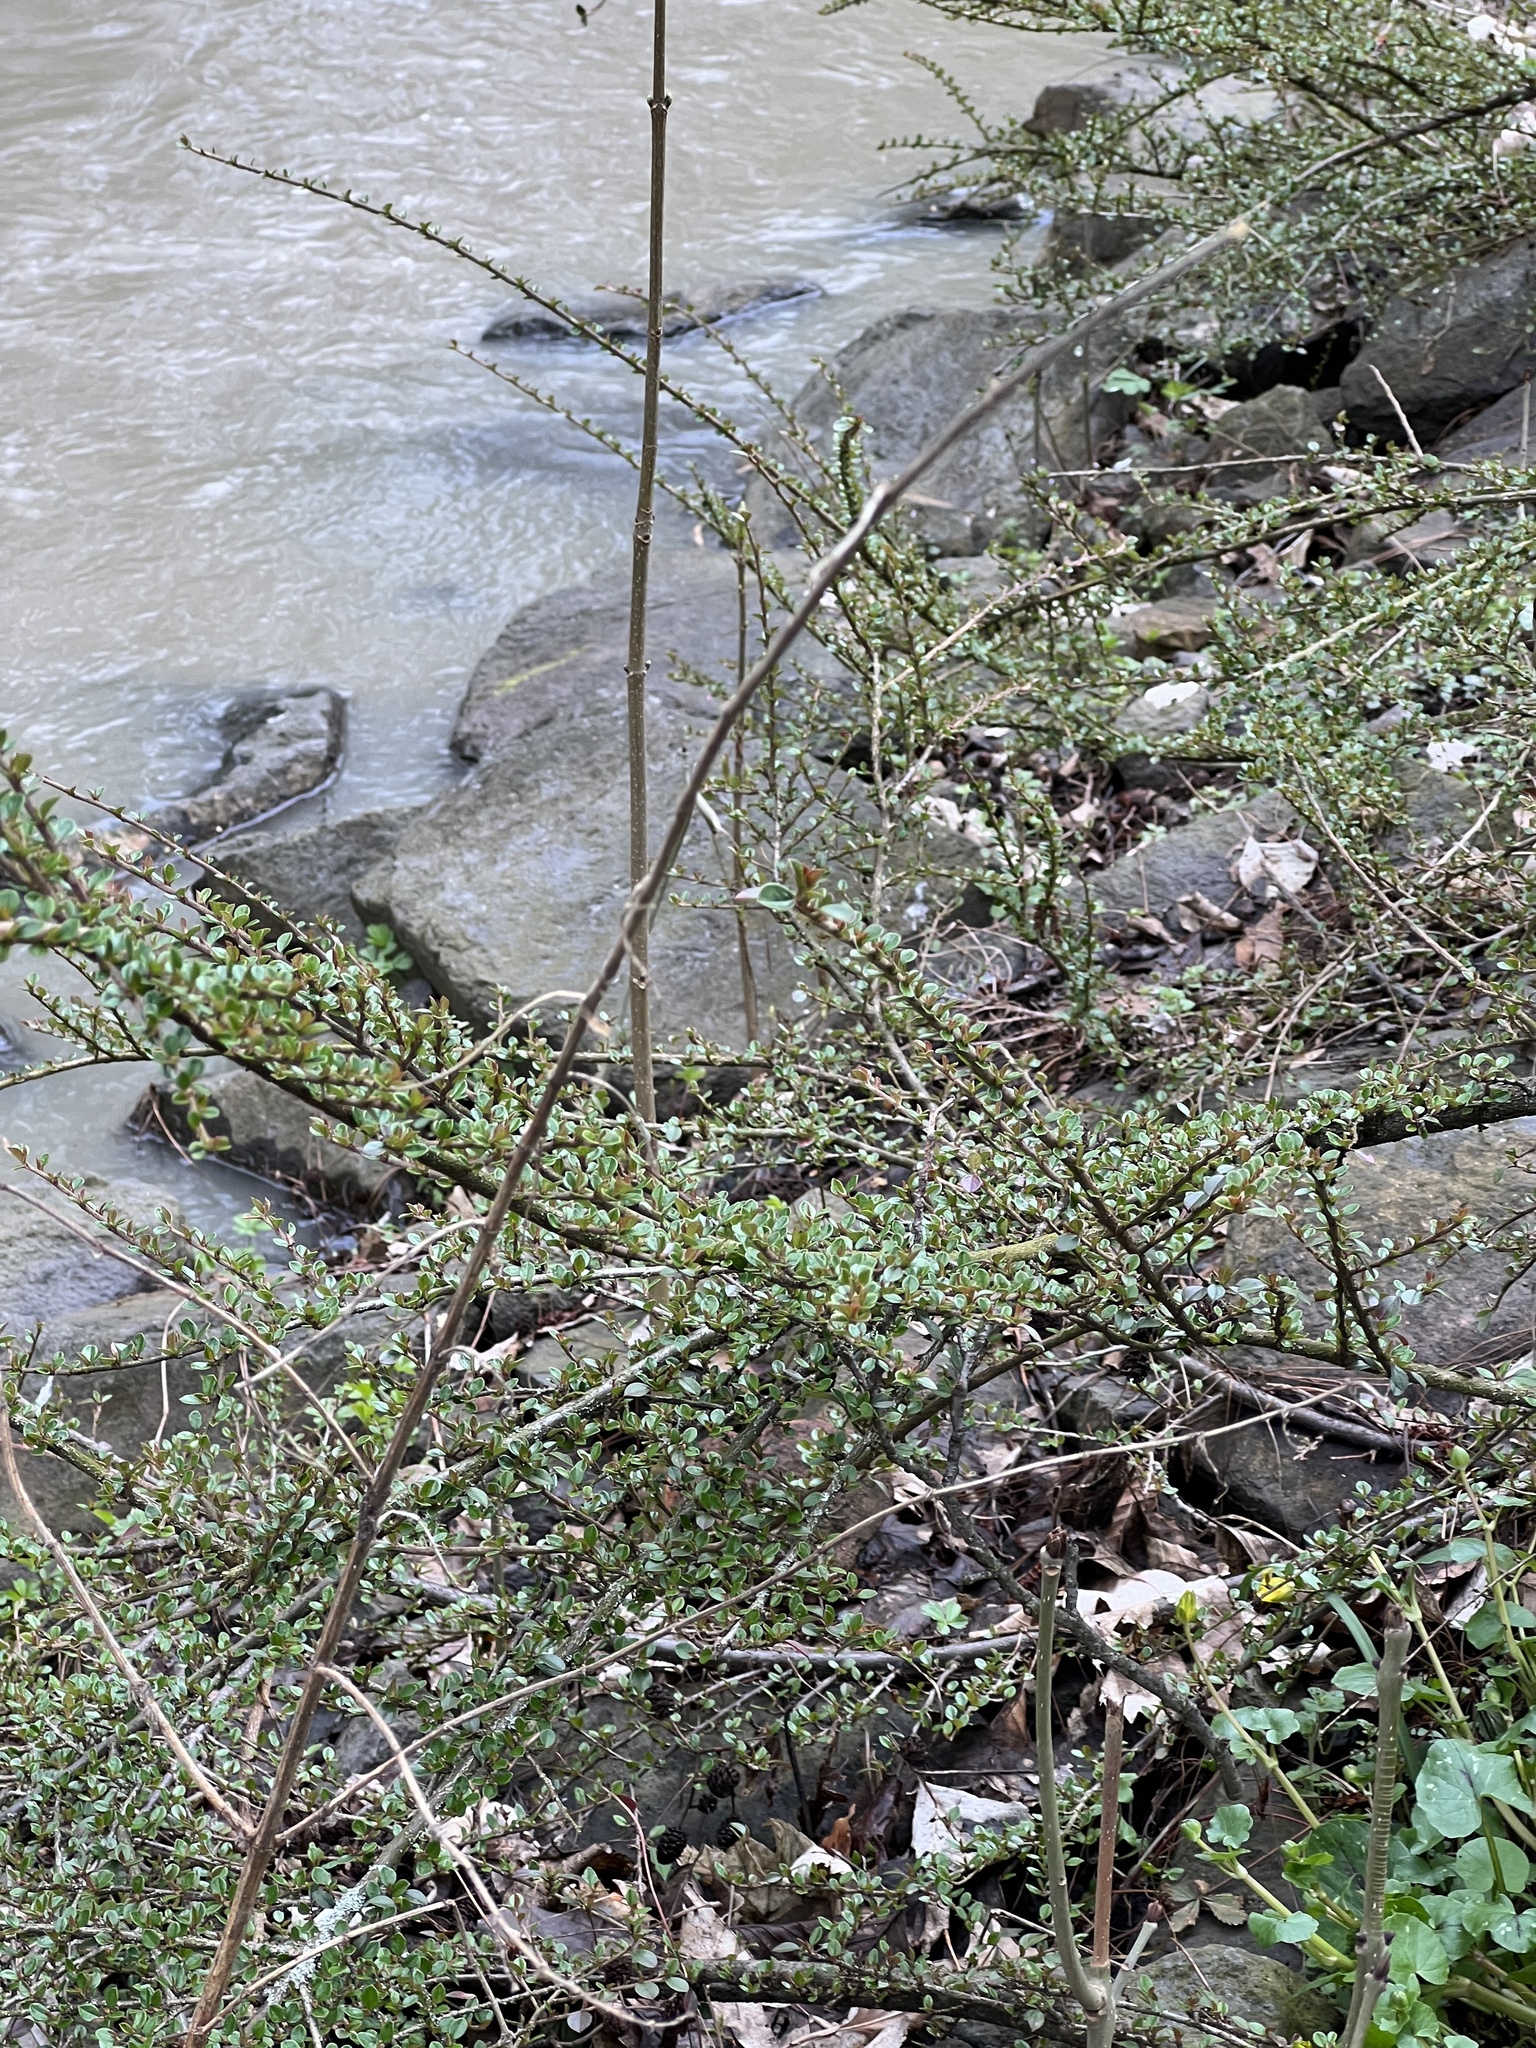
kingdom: Plantae
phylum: Tracheophyta
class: Magnoliopsida
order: Rosales
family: Rosaceae
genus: Cotoneaster
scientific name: Cotoneaster horizontalis
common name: Wall cotoneaster
